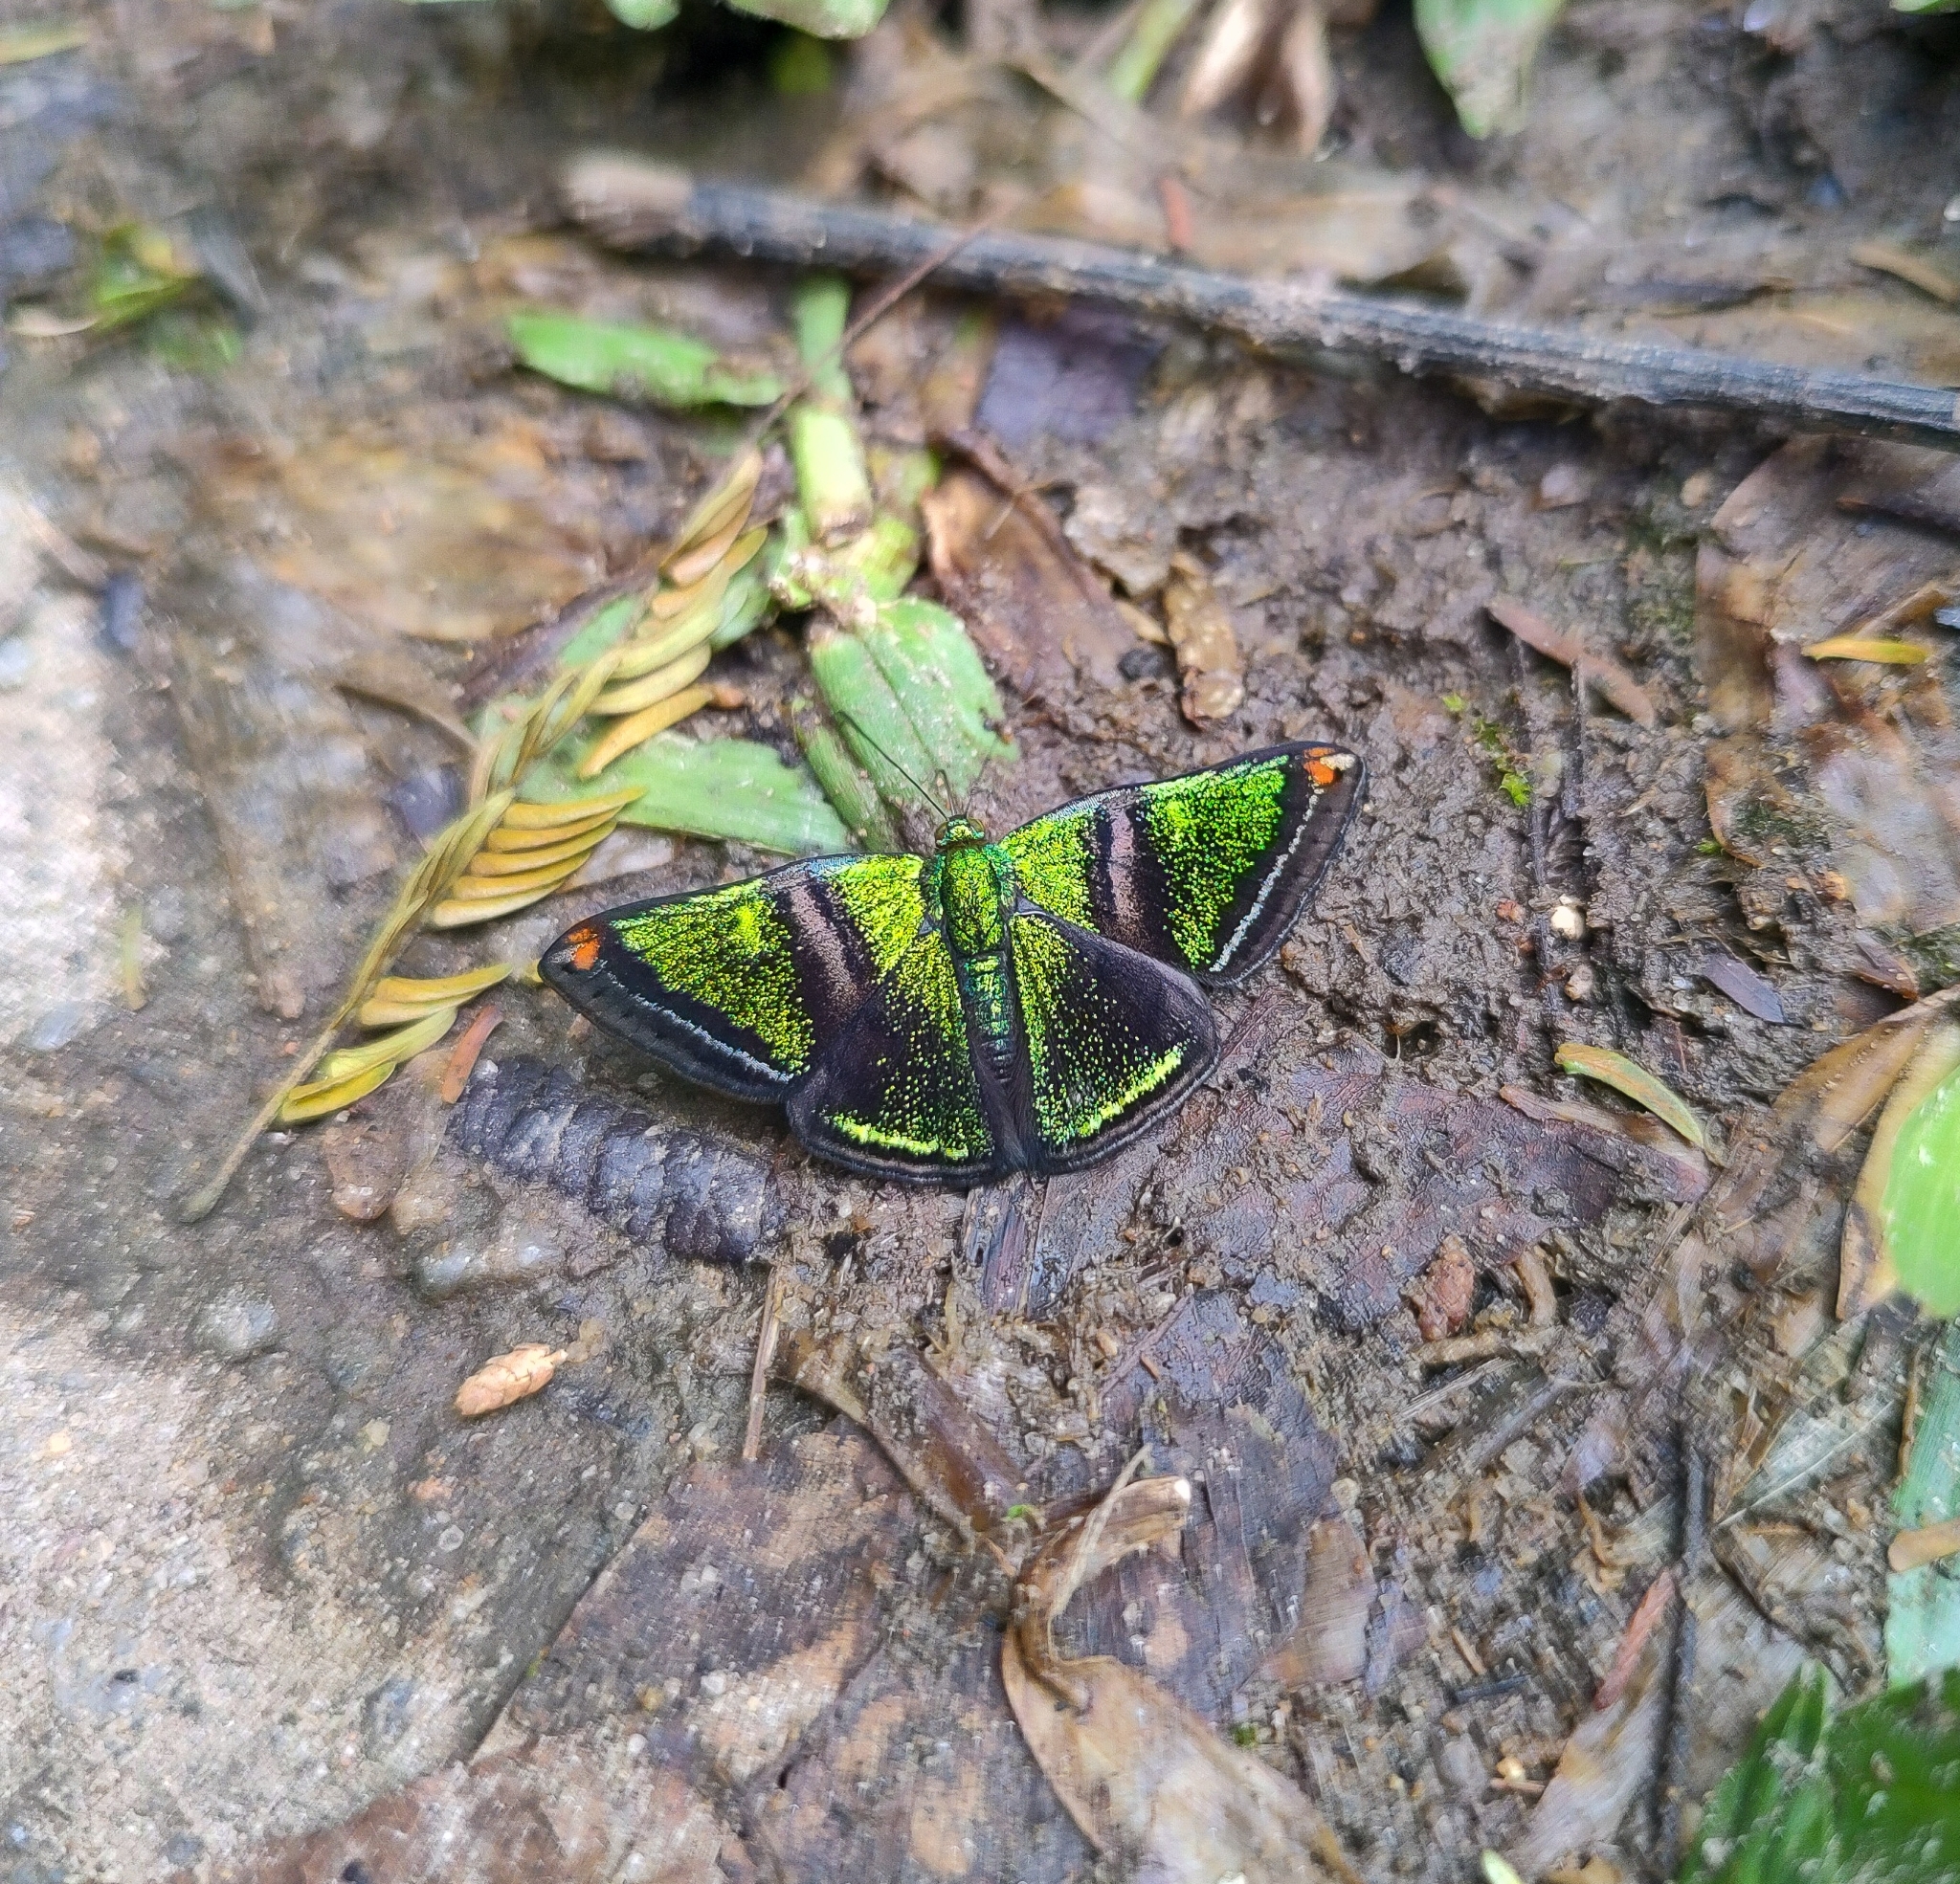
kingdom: Animalia
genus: Caria
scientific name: Caria plutargus
